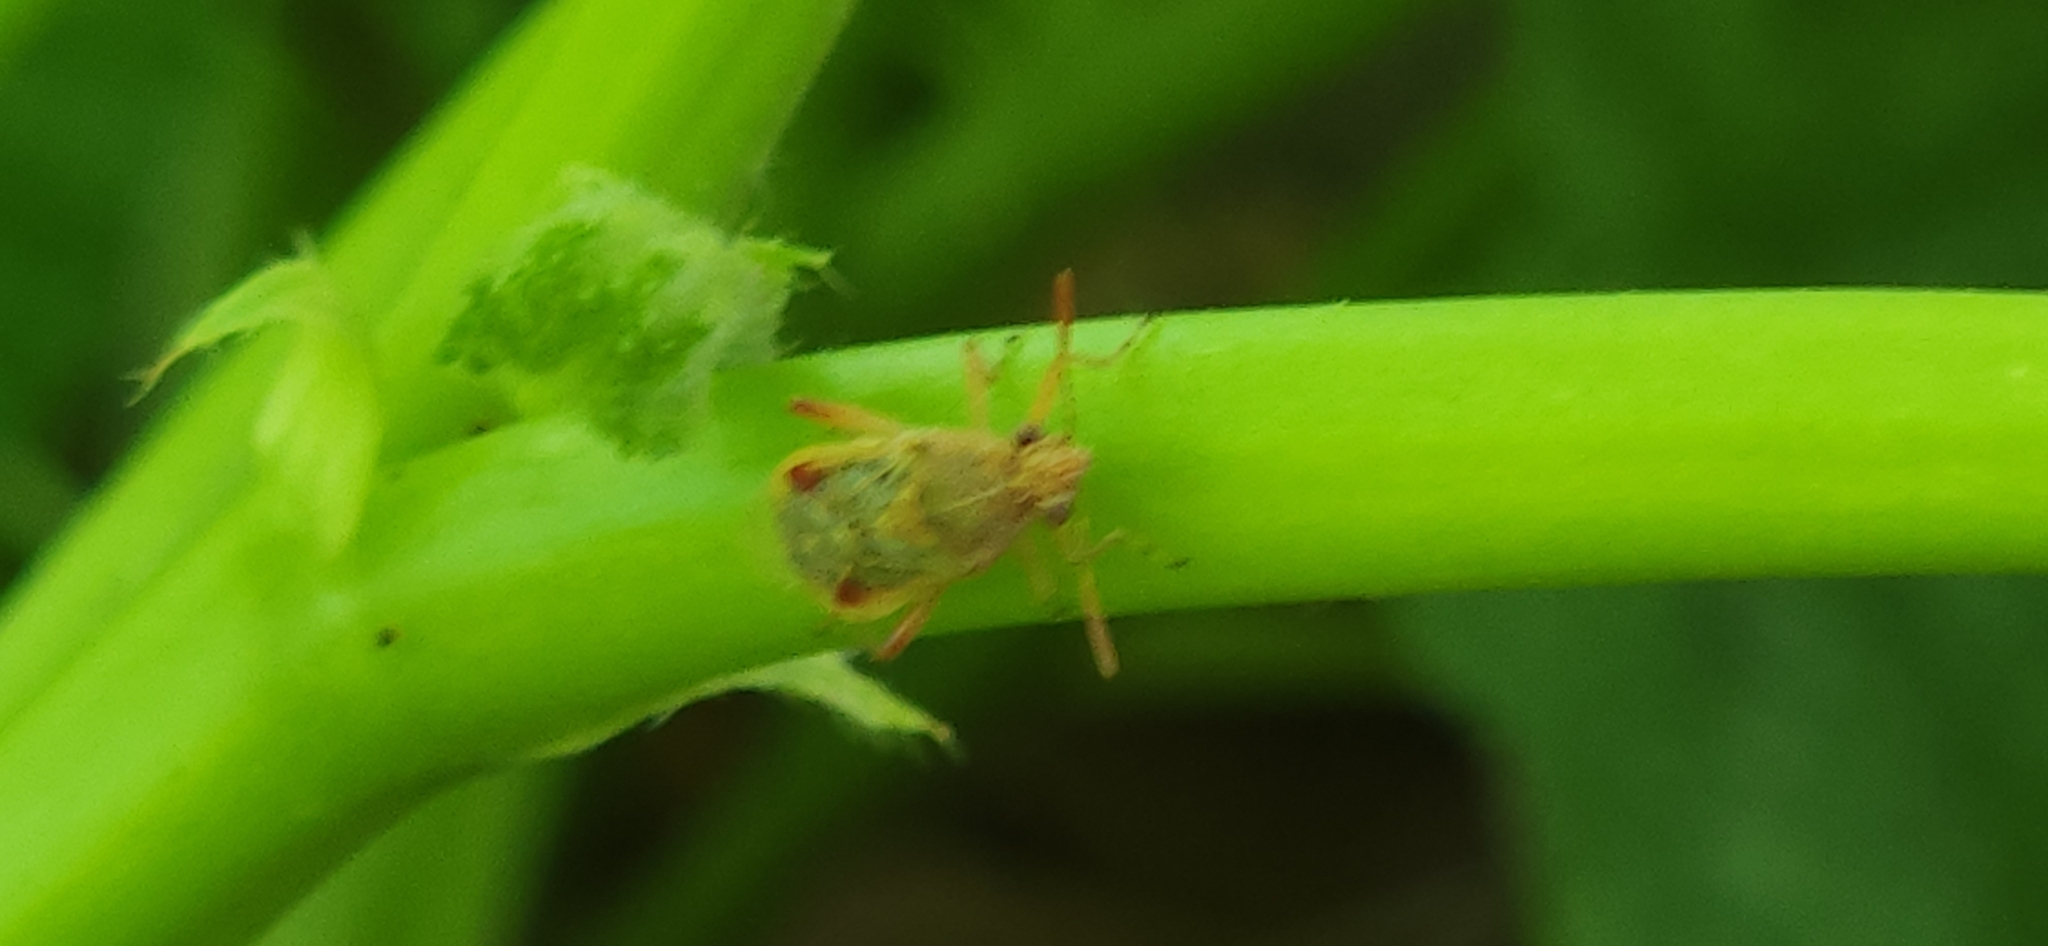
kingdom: Animalia
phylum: Arthropoda
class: Insecta
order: Hemiptera
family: Rhopalidae
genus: Liorhyssus
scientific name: Liorhyssus hyalinus
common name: Scentless plant bug
